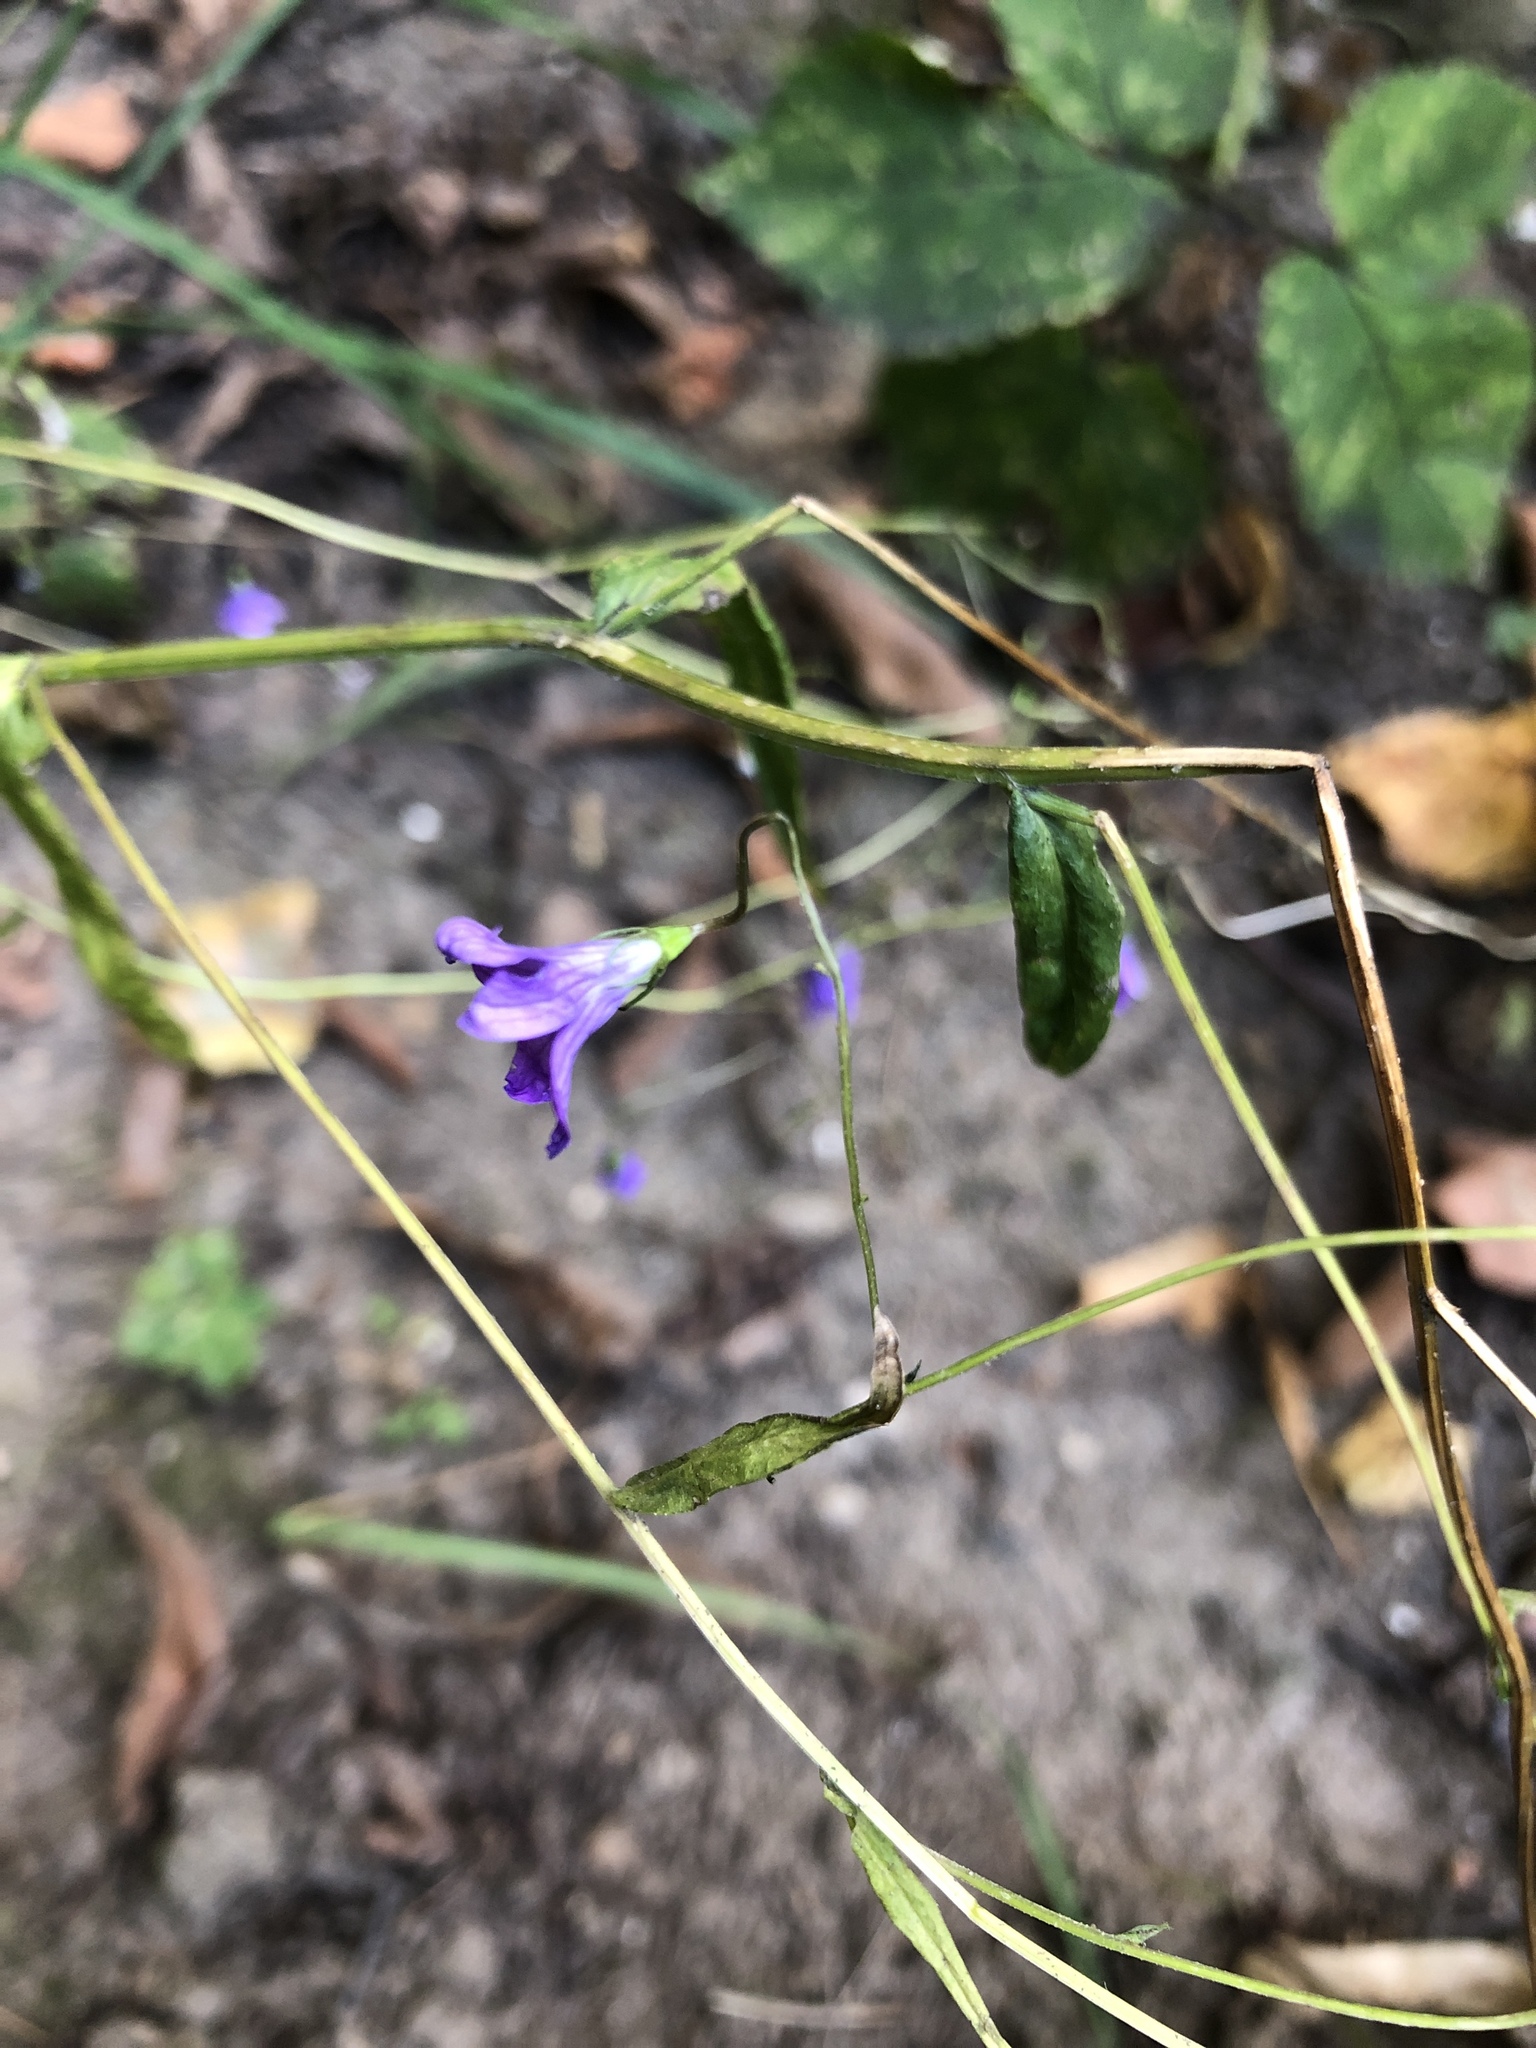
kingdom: Plantae
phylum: Tracheophyta
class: Magnoliopsida
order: Asterales
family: Campanulaceae
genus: Campanula
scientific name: Campanula patula
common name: Spreading bellflower
